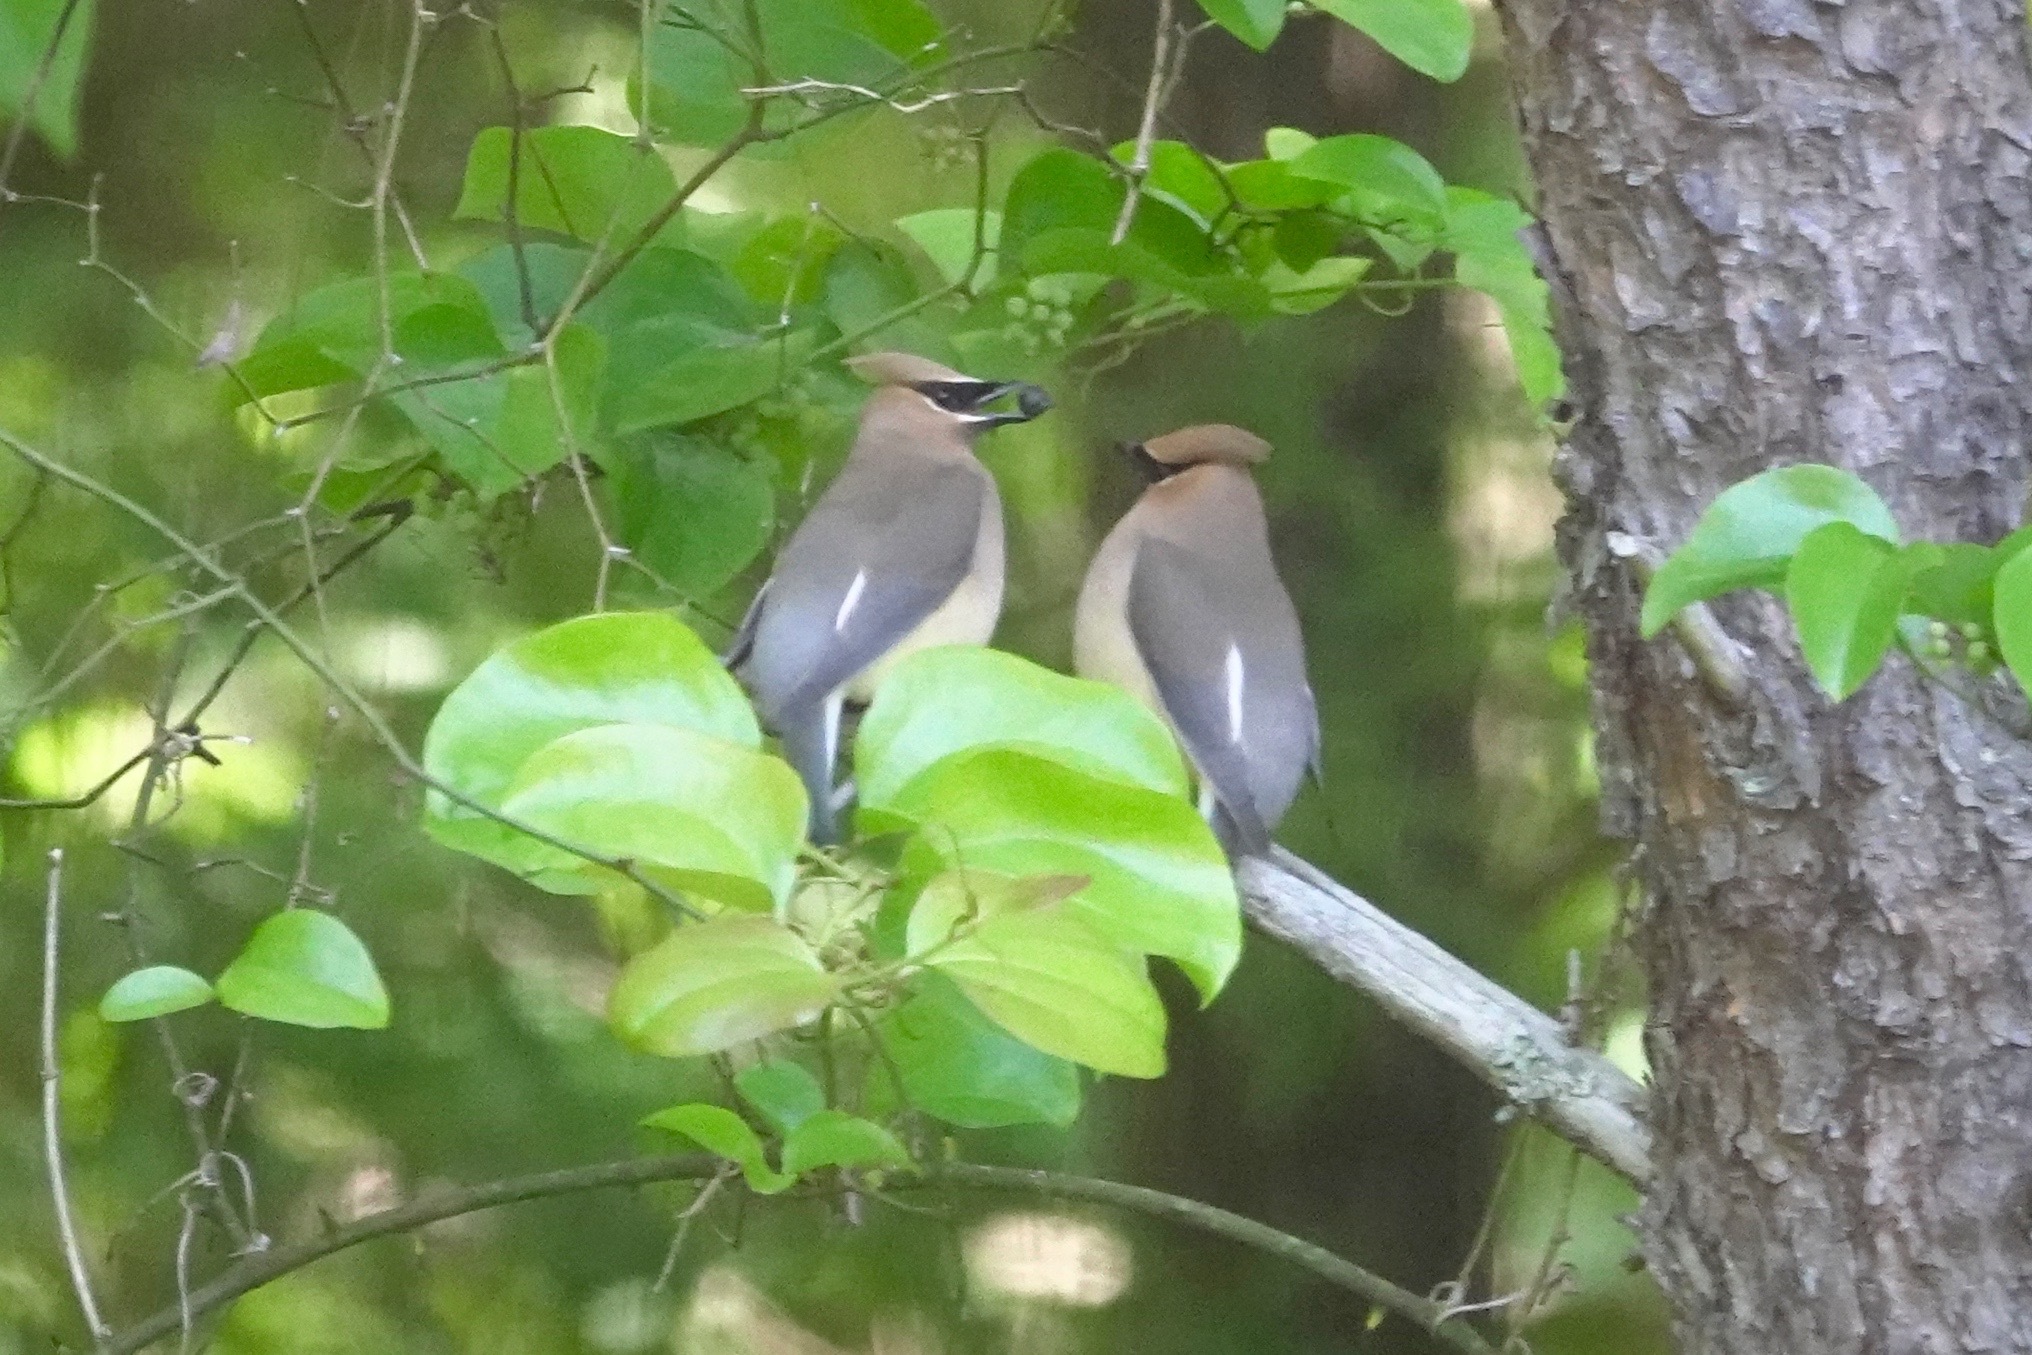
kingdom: Animalia
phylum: Chordata
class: Aves
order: Passeriformes
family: Bombycillidae
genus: Bombycilla
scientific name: Bombycilla cedrorum
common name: Cedar waxwing
